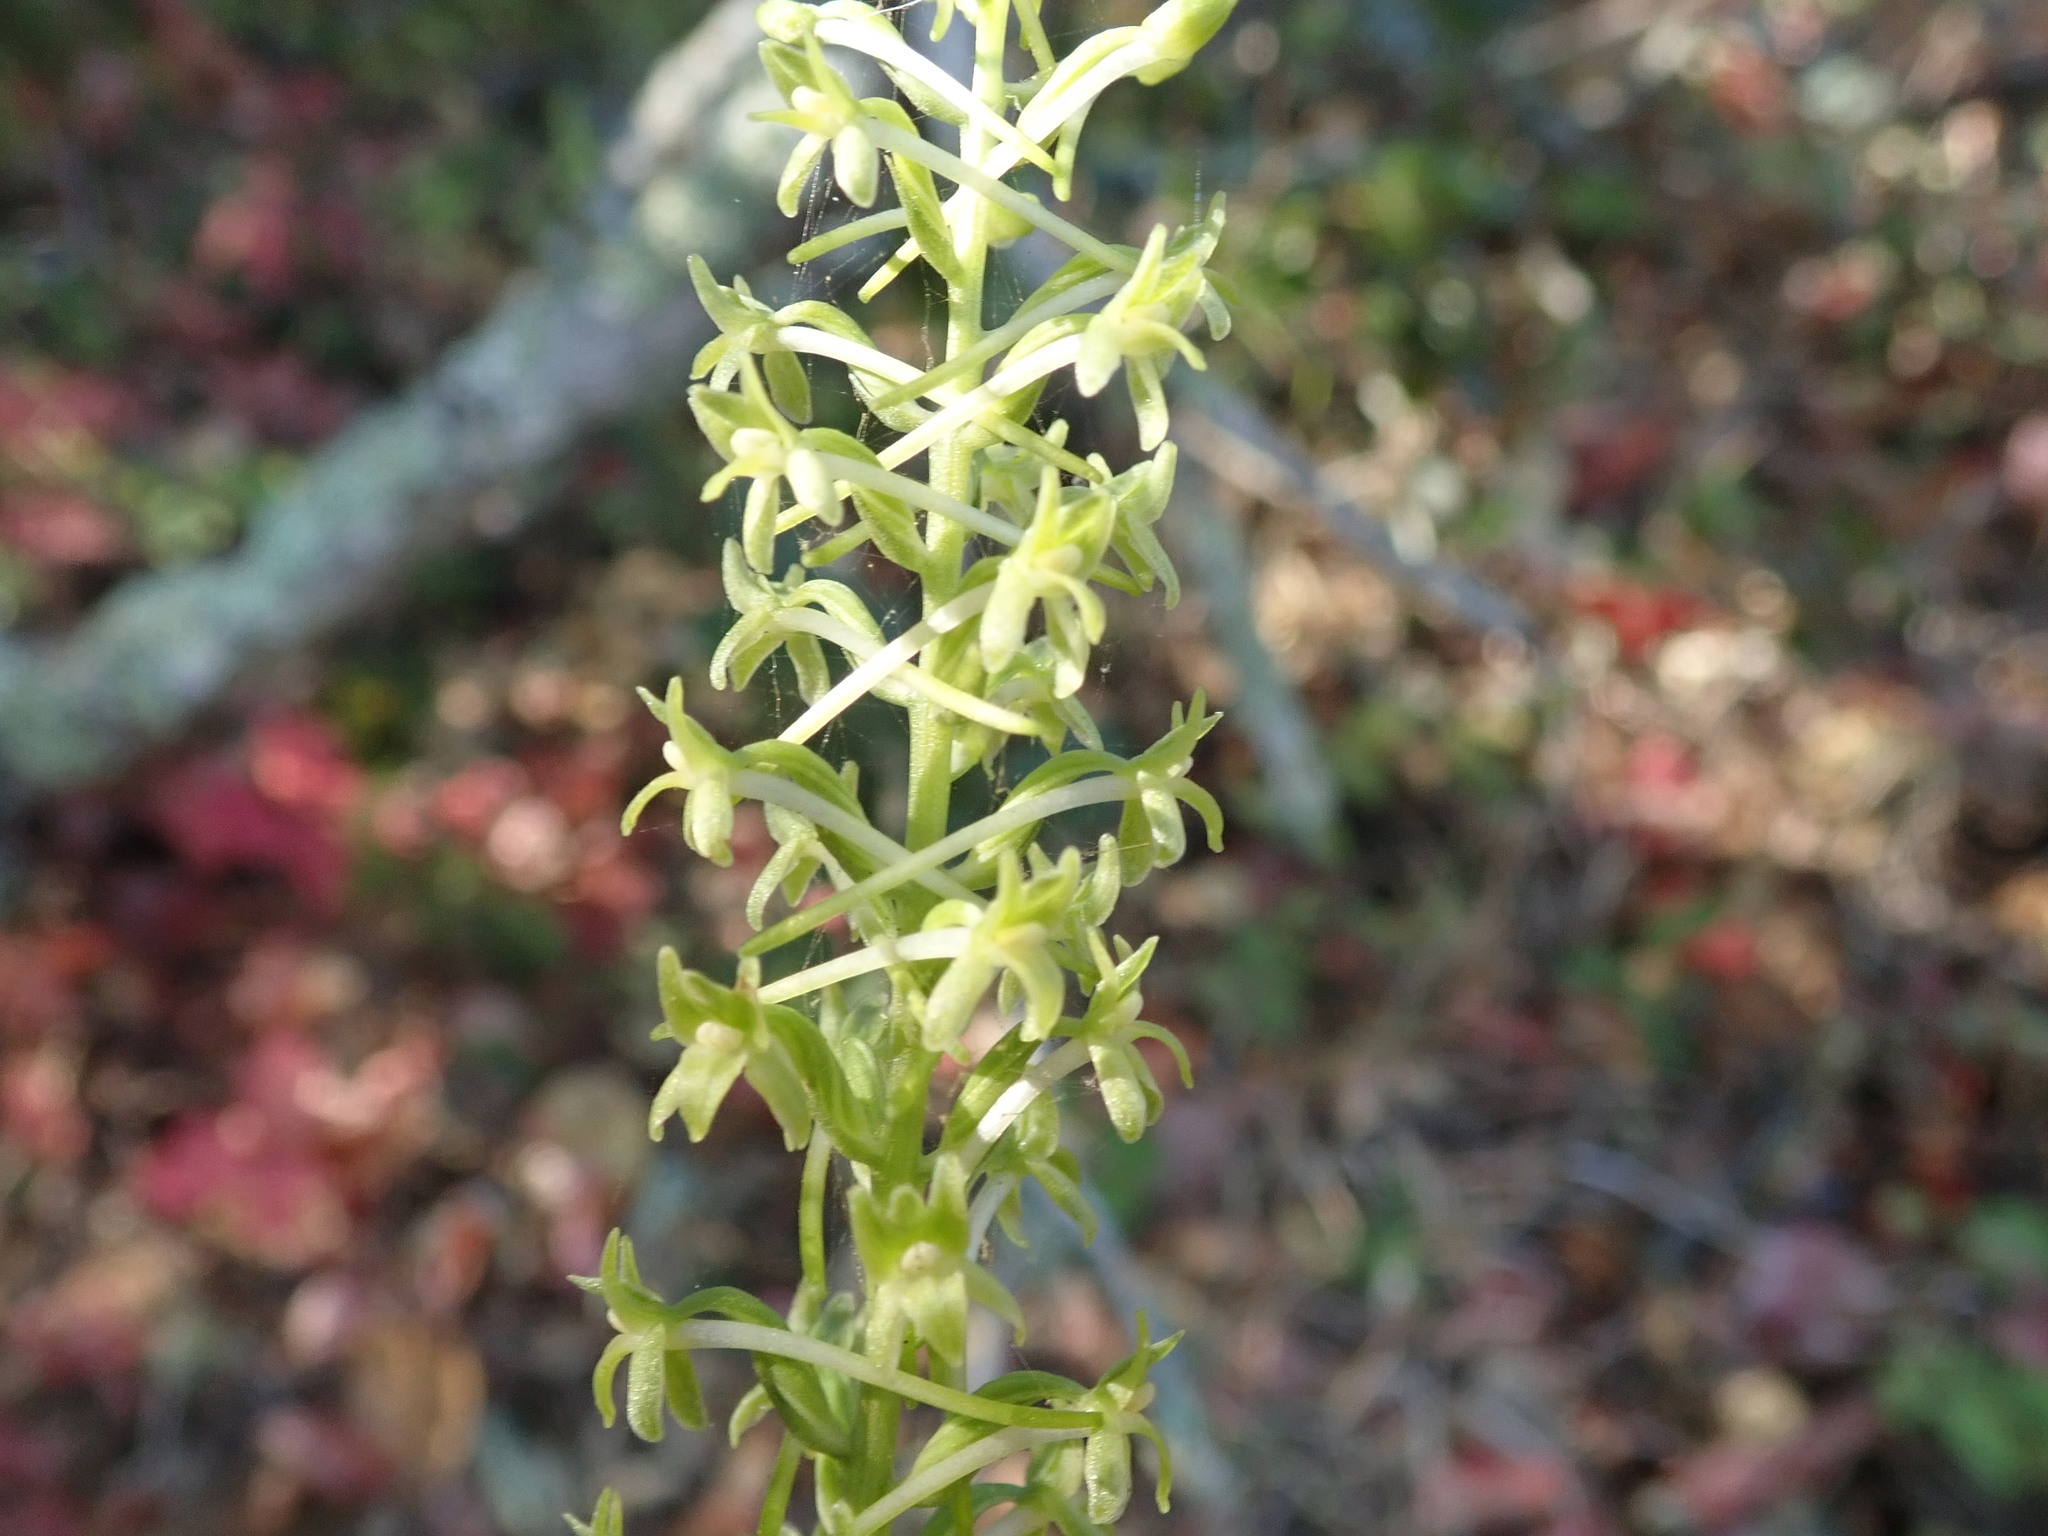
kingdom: Plantae
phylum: Tracheophyta
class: Liliopsida
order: Asparagales
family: Orchidaceae
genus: Platanthera
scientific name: Platanthera elongata
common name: Dense-flowered rein orchid
